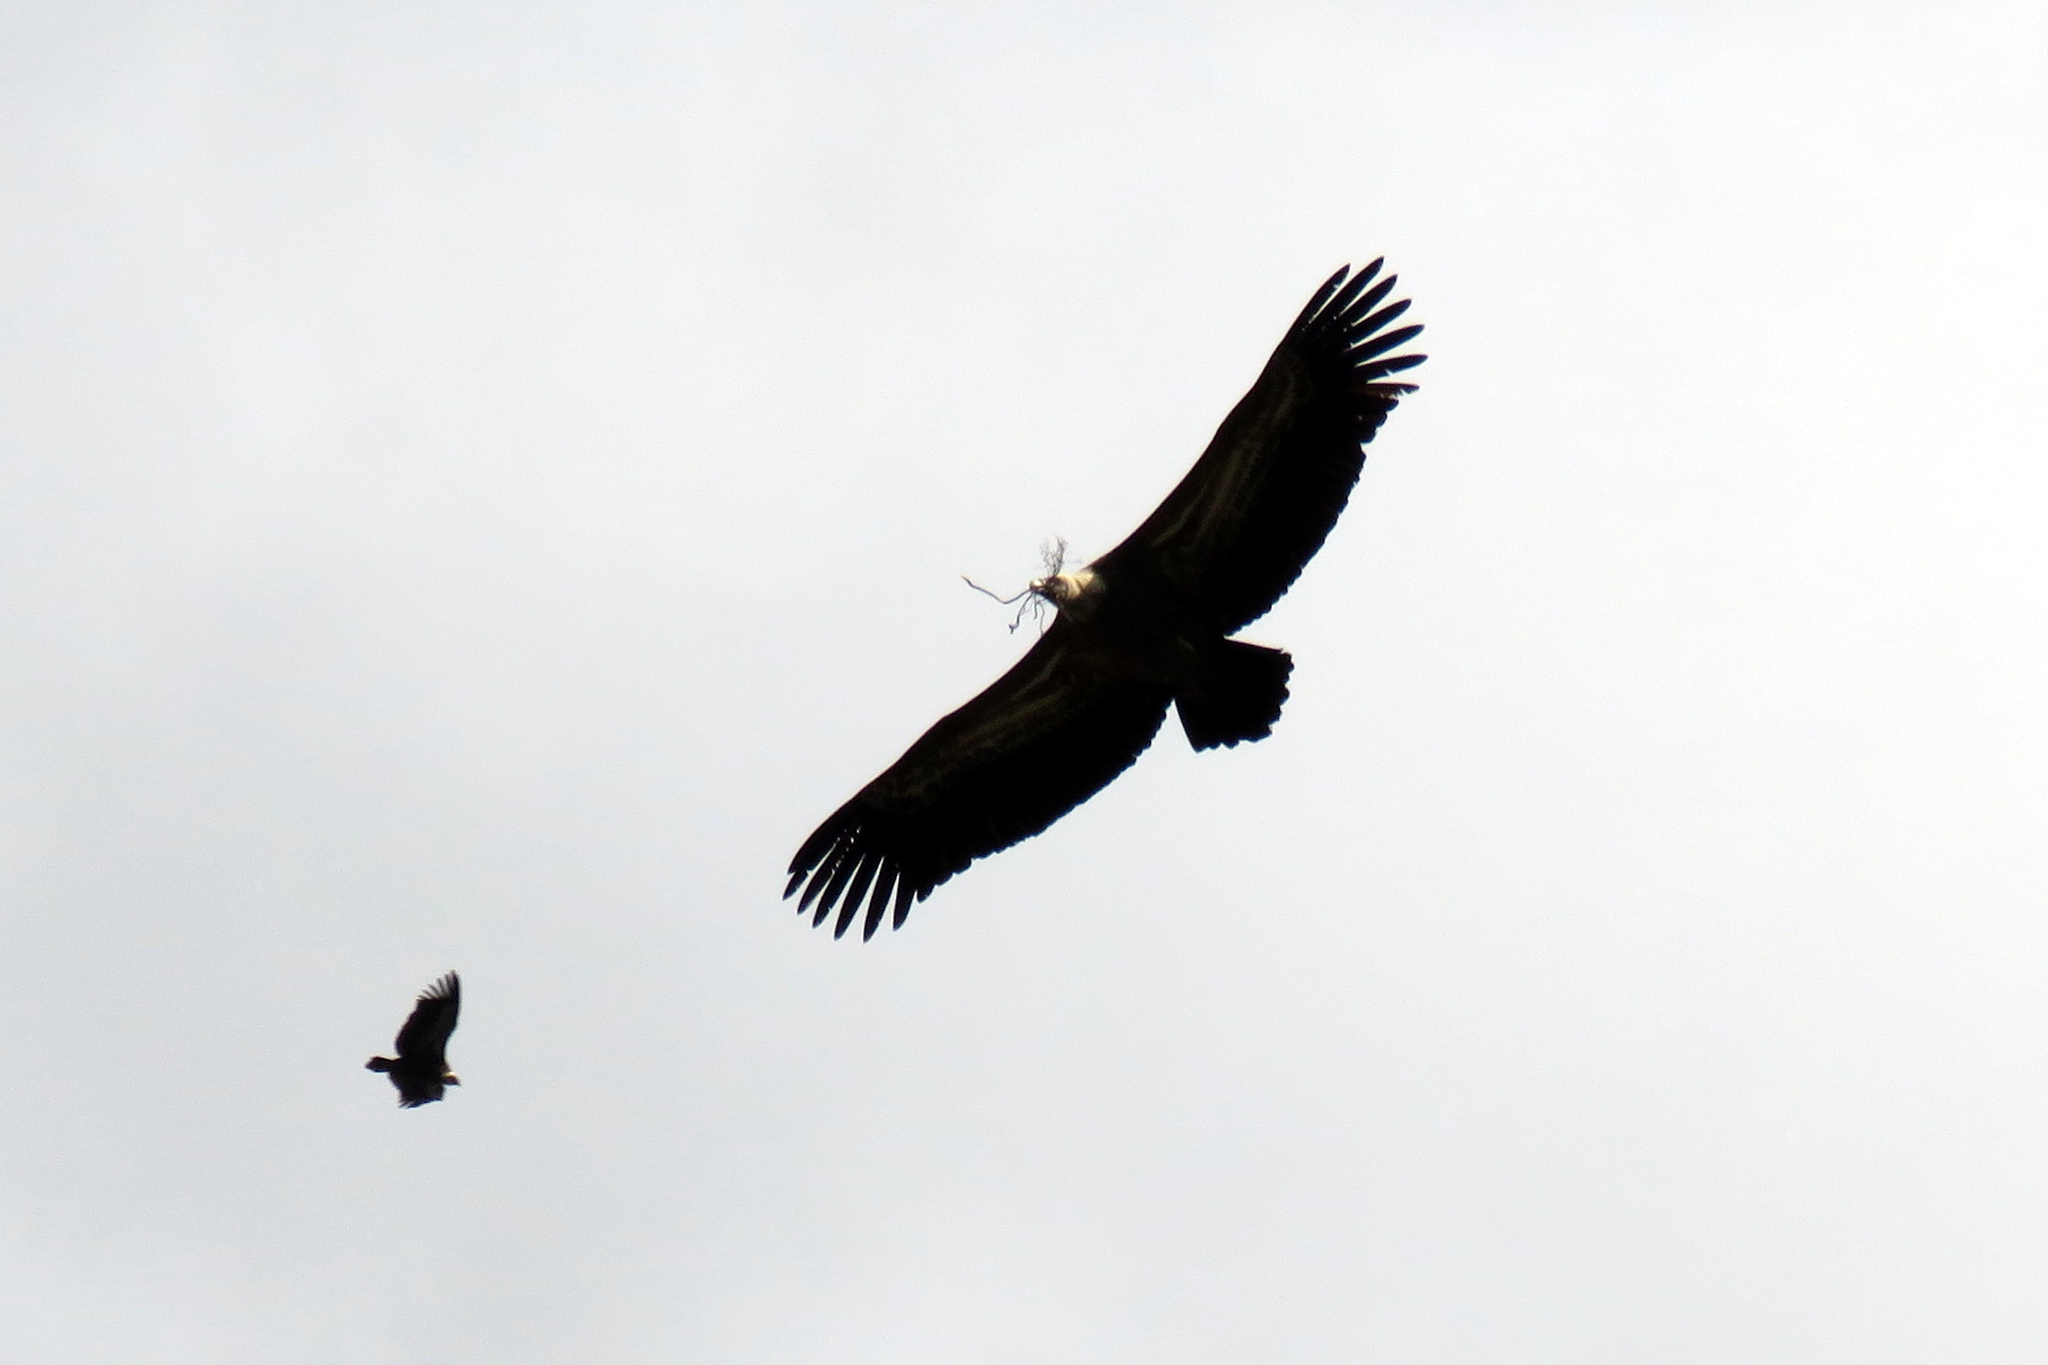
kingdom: Animalia
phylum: Chordata
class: Aves
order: Accipitriformes
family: Accipitridae
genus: Gyps
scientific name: Gyps fulvus
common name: Griffon vulture
